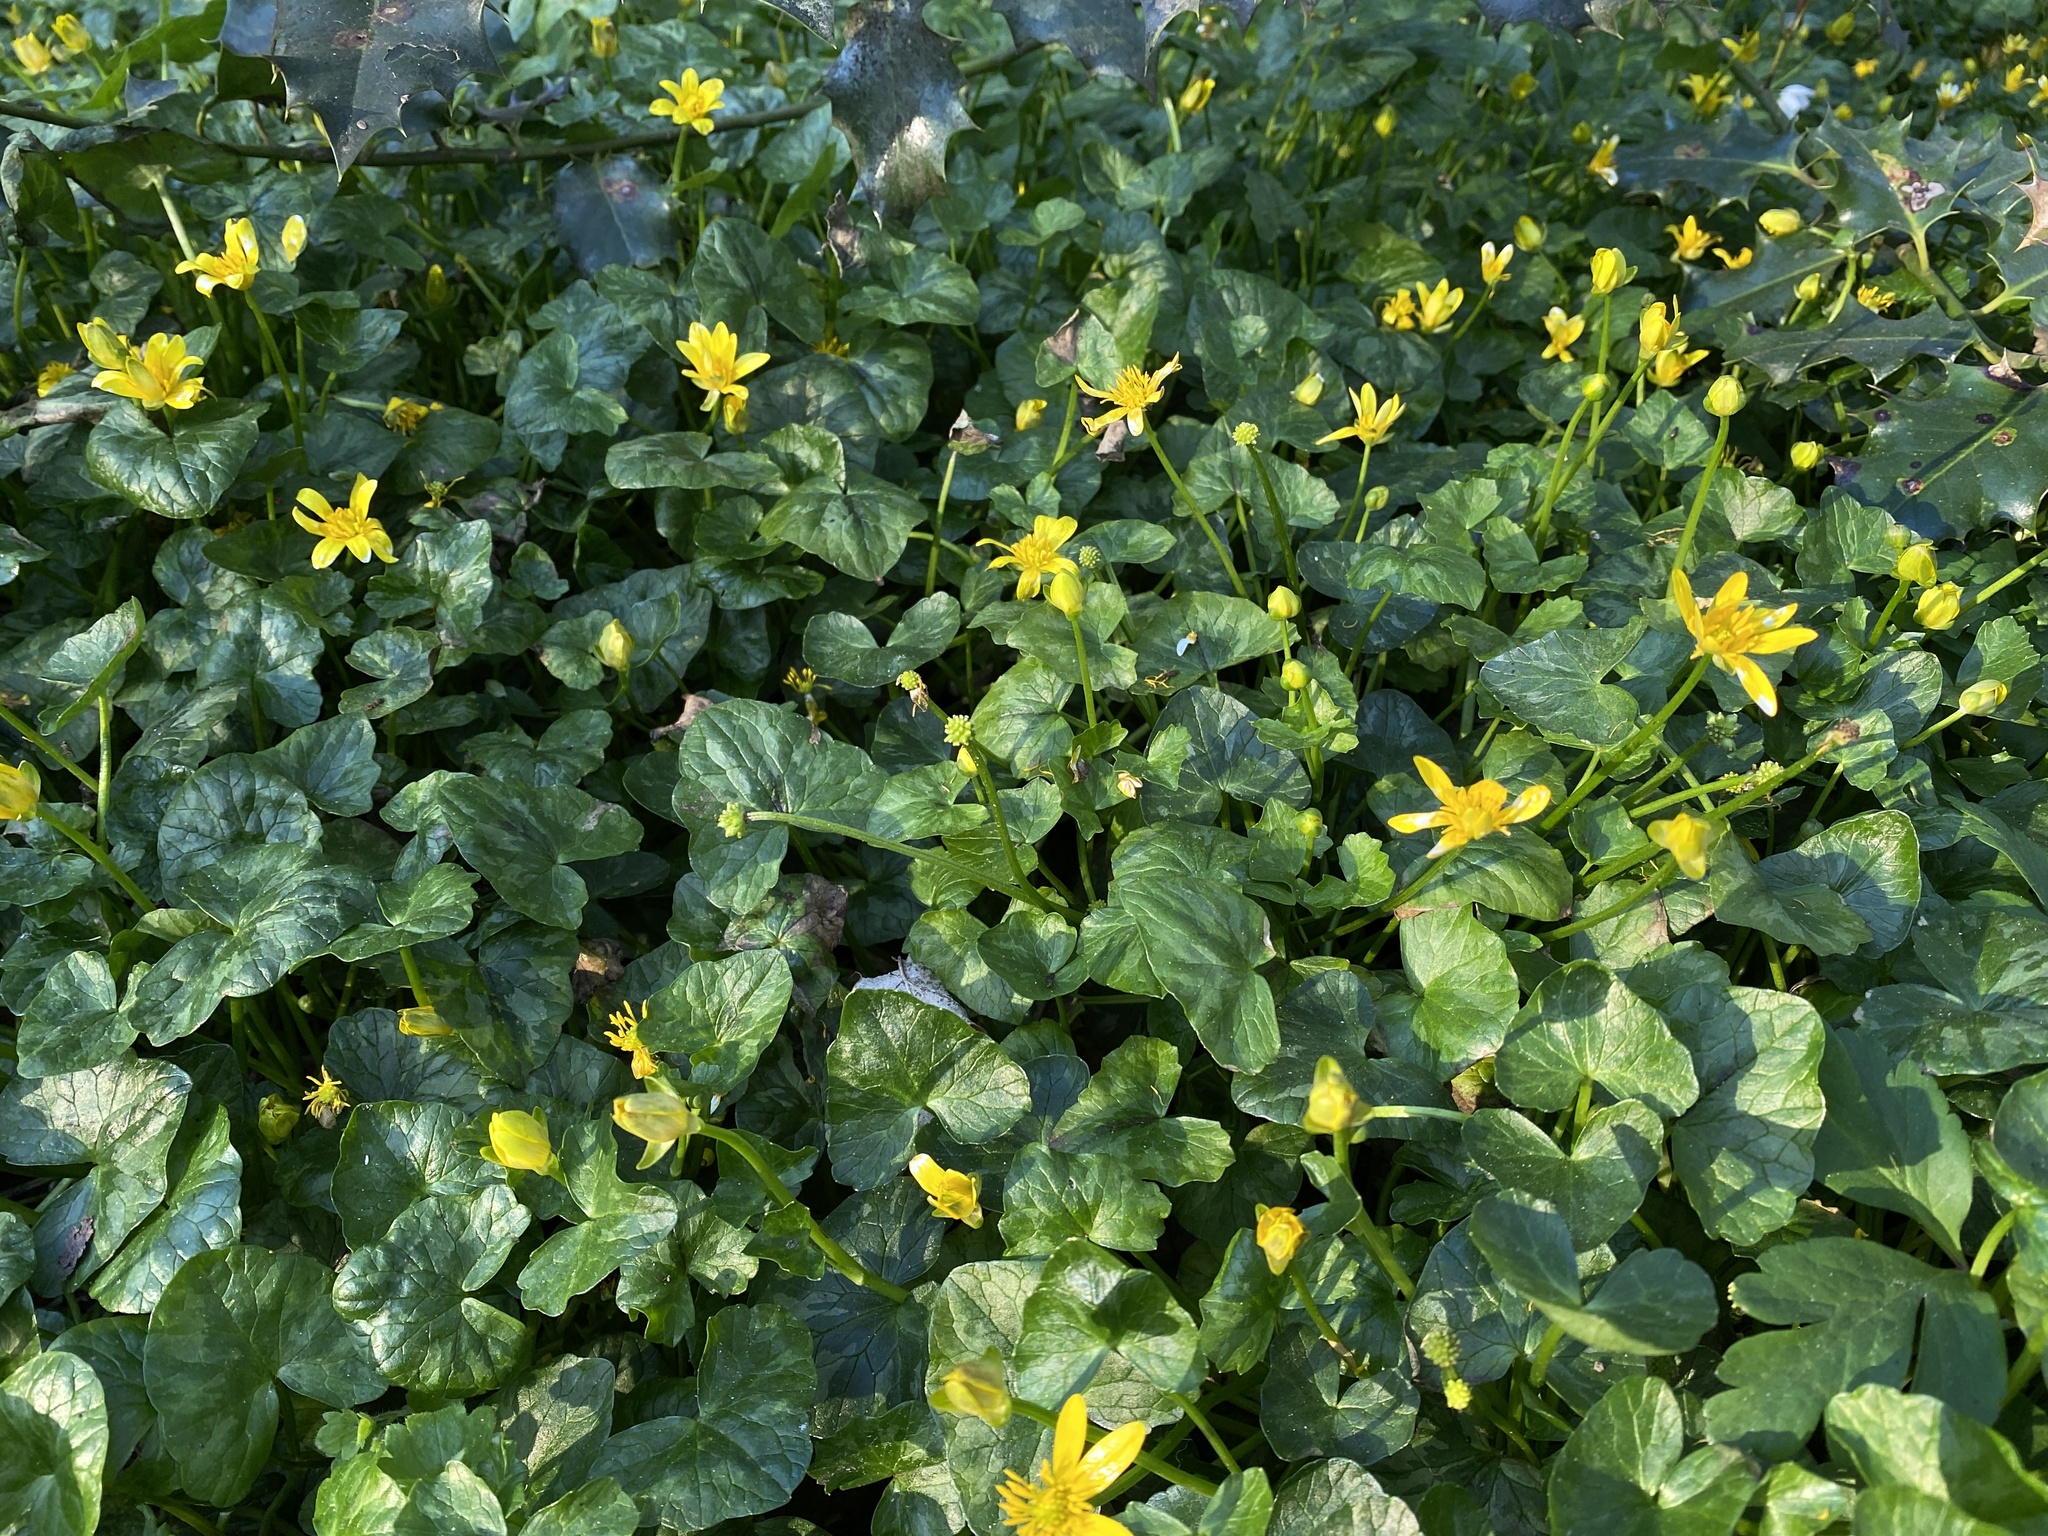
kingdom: Plantae
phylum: Tracheophyta
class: Magnoliopsida
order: Ranunculales
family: Ranunculaceae
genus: Ficaria
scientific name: Ficaria verna
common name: Lesser celandine
